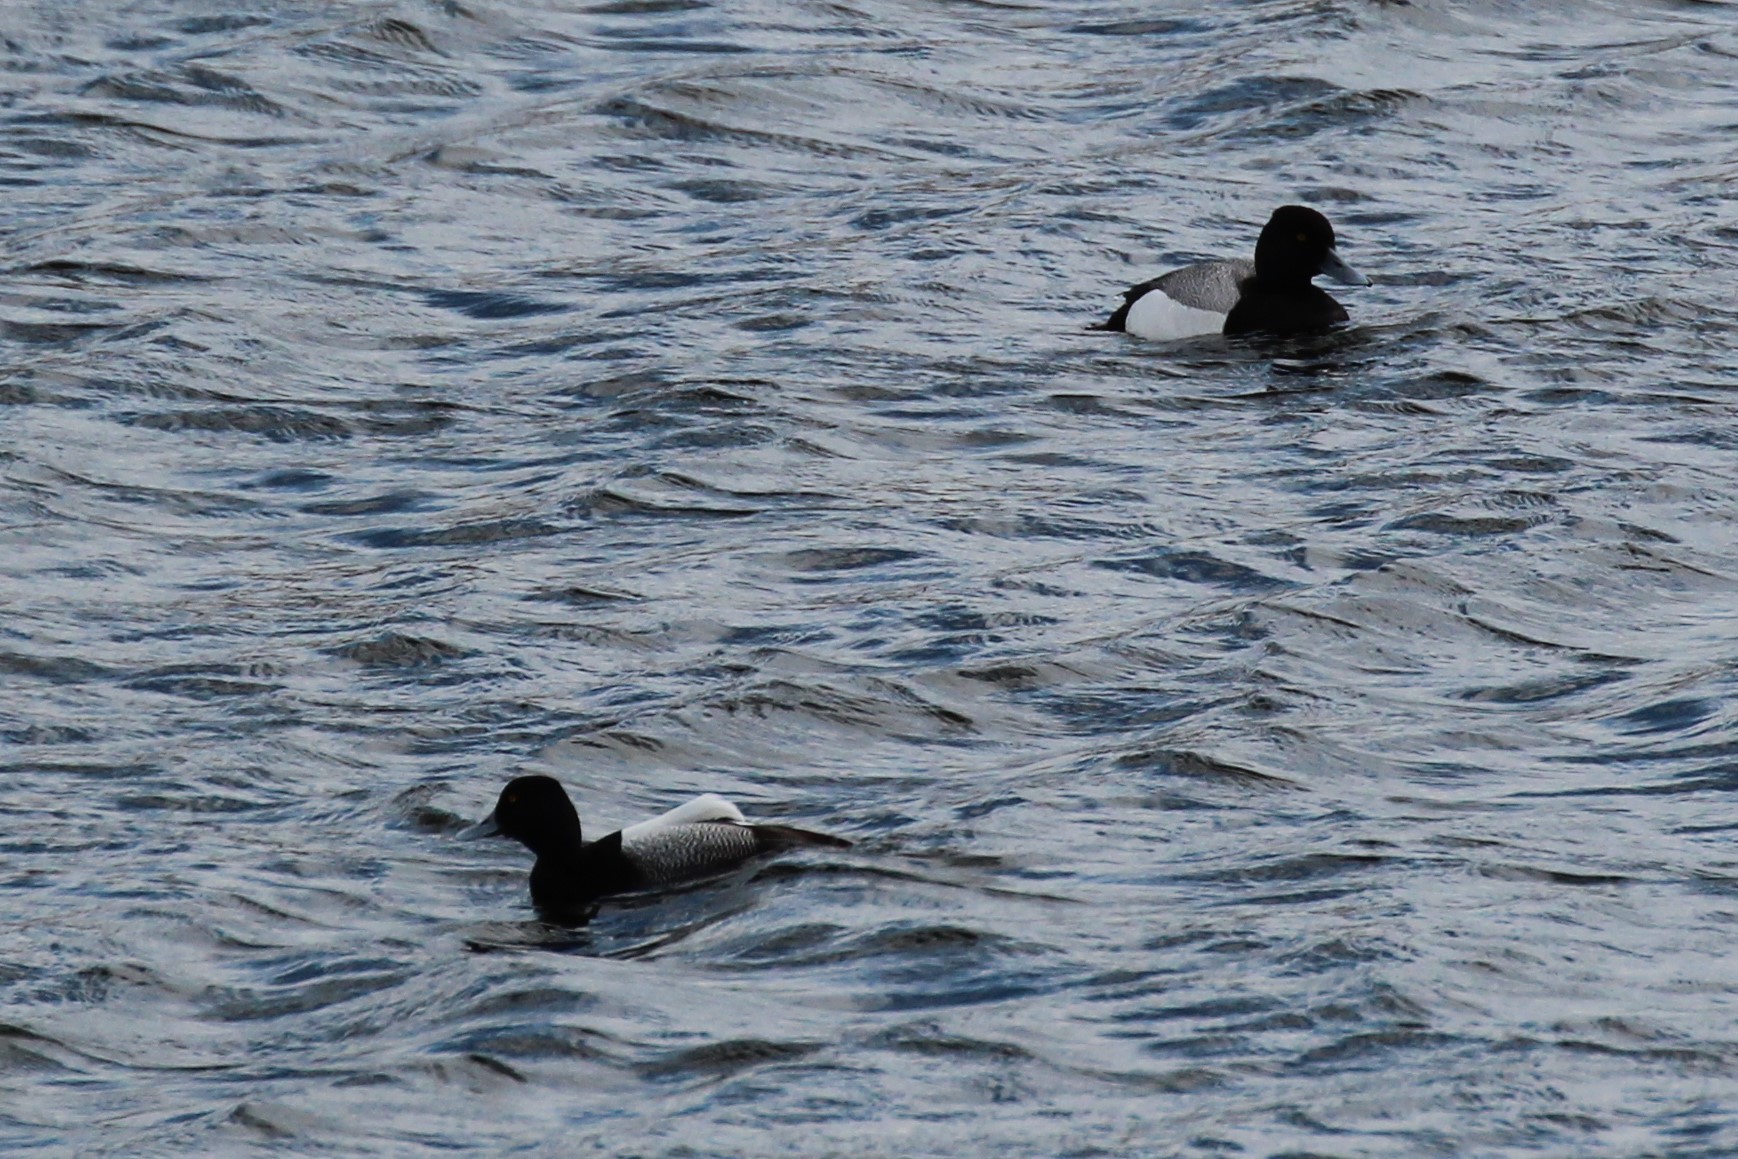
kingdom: Animalia
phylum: Chordata
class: Aves
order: Anseriformes
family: Anatidae
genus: Aythya
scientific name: Aythya affinis
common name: Lesser scaup
